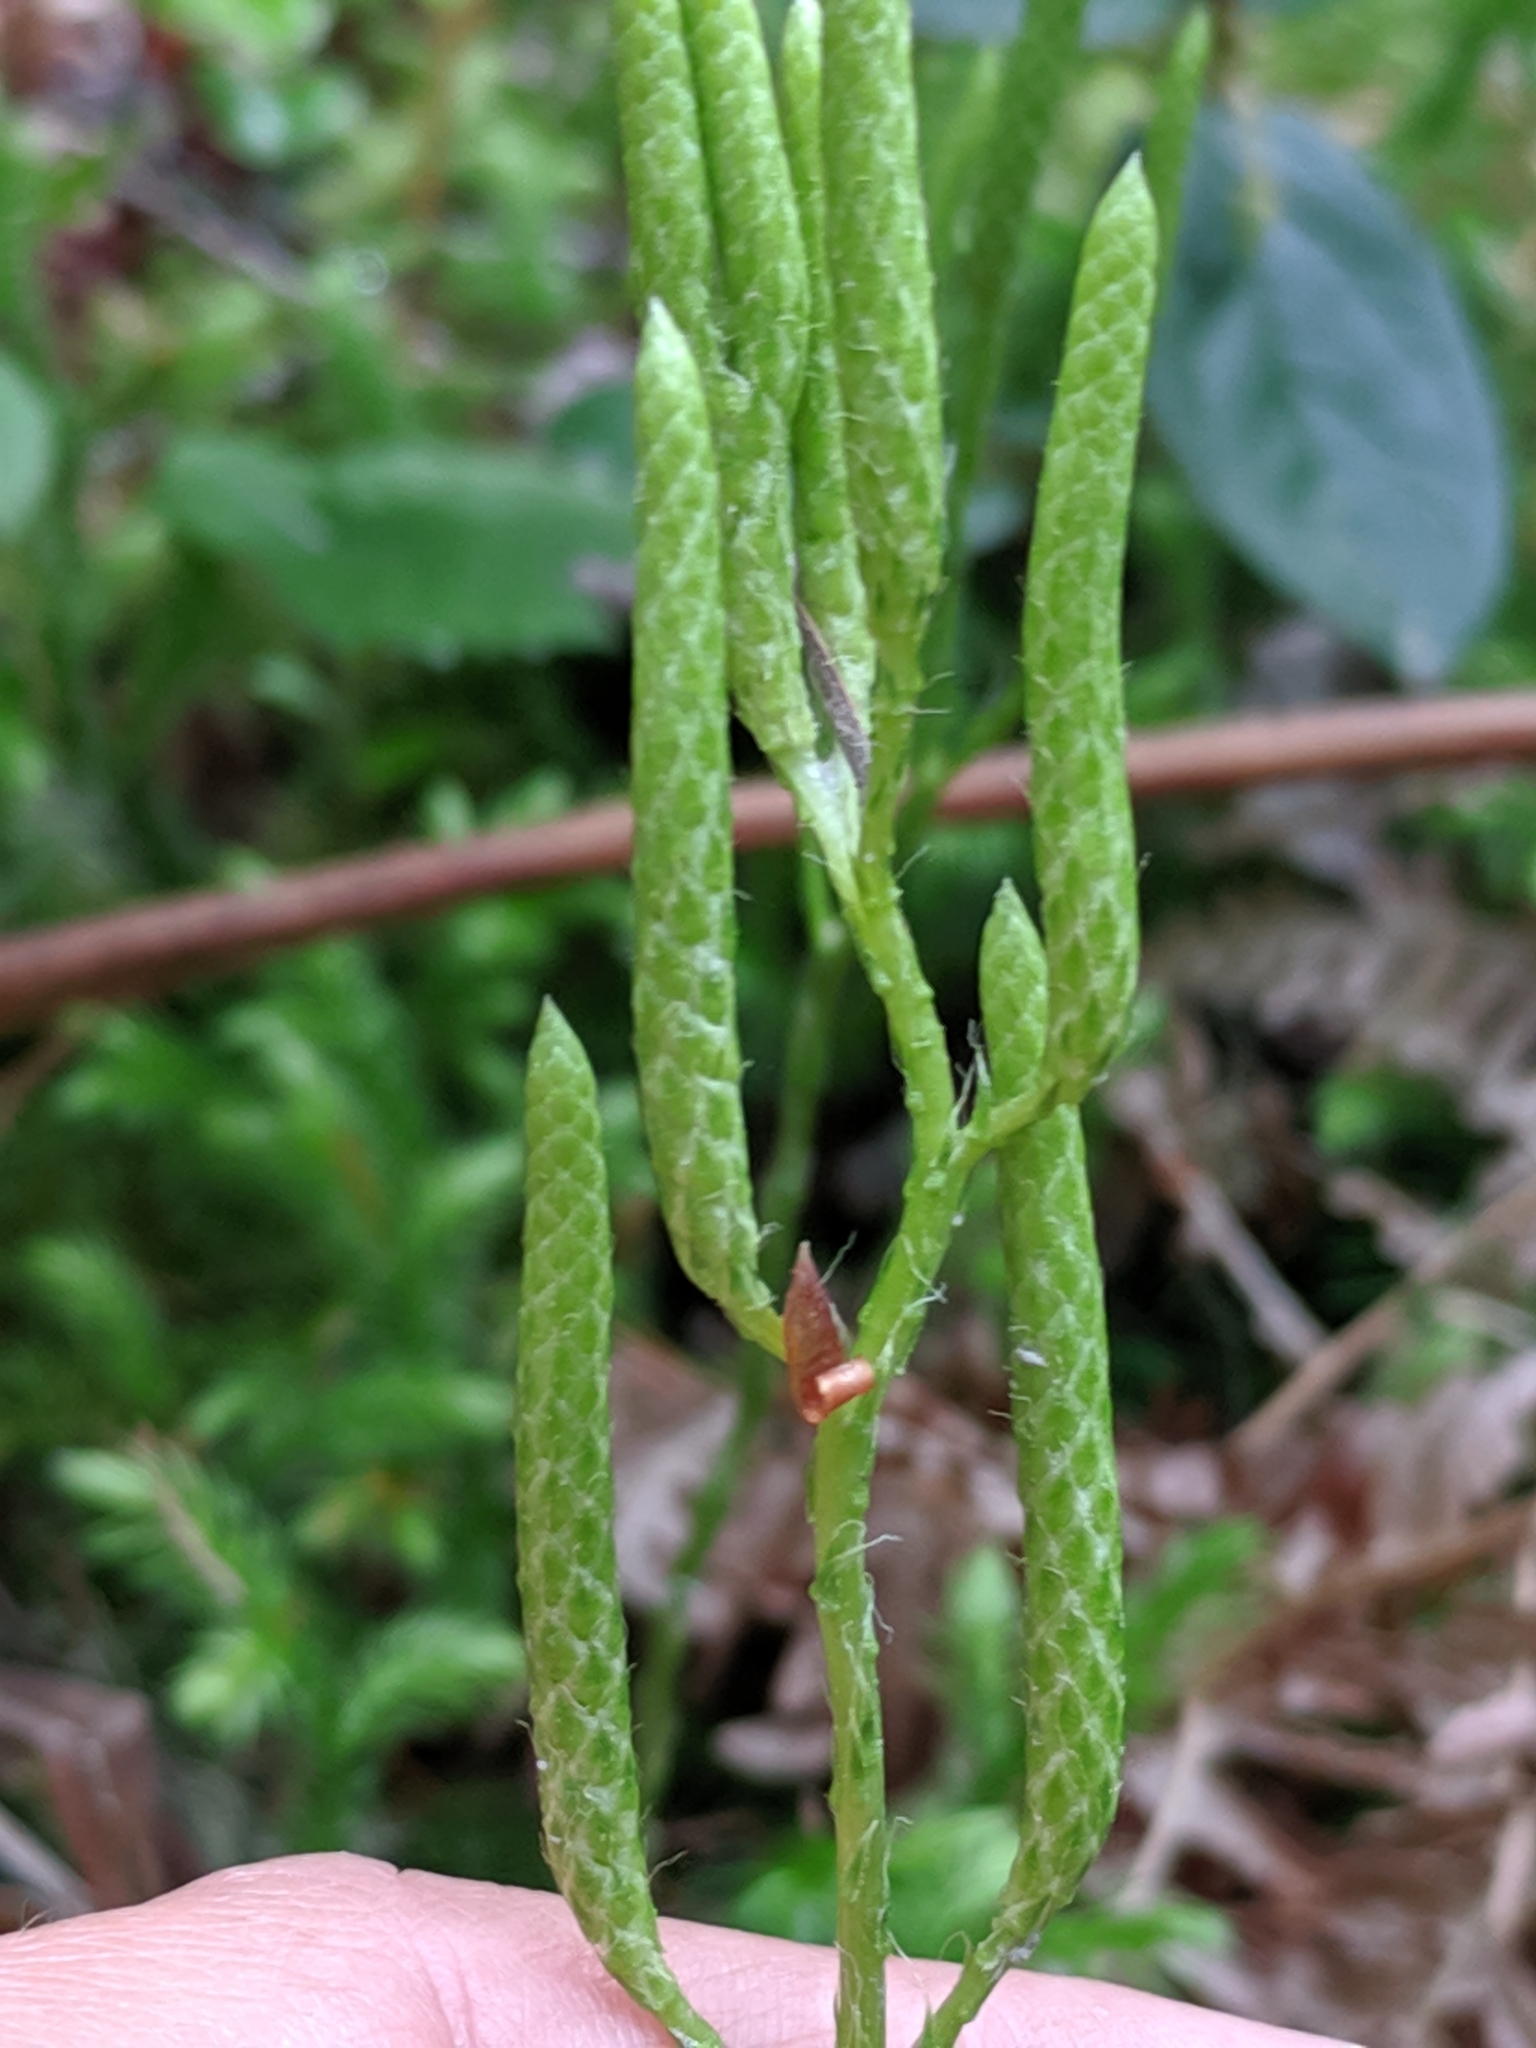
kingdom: Plantae
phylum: Tracheophyta
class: Lycopodiopsida
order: Lycopodiales
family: Lycopodiaceae
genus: Lycopodium
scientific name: Lycopodium clavatum
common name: Stag's-horn clubmoss
